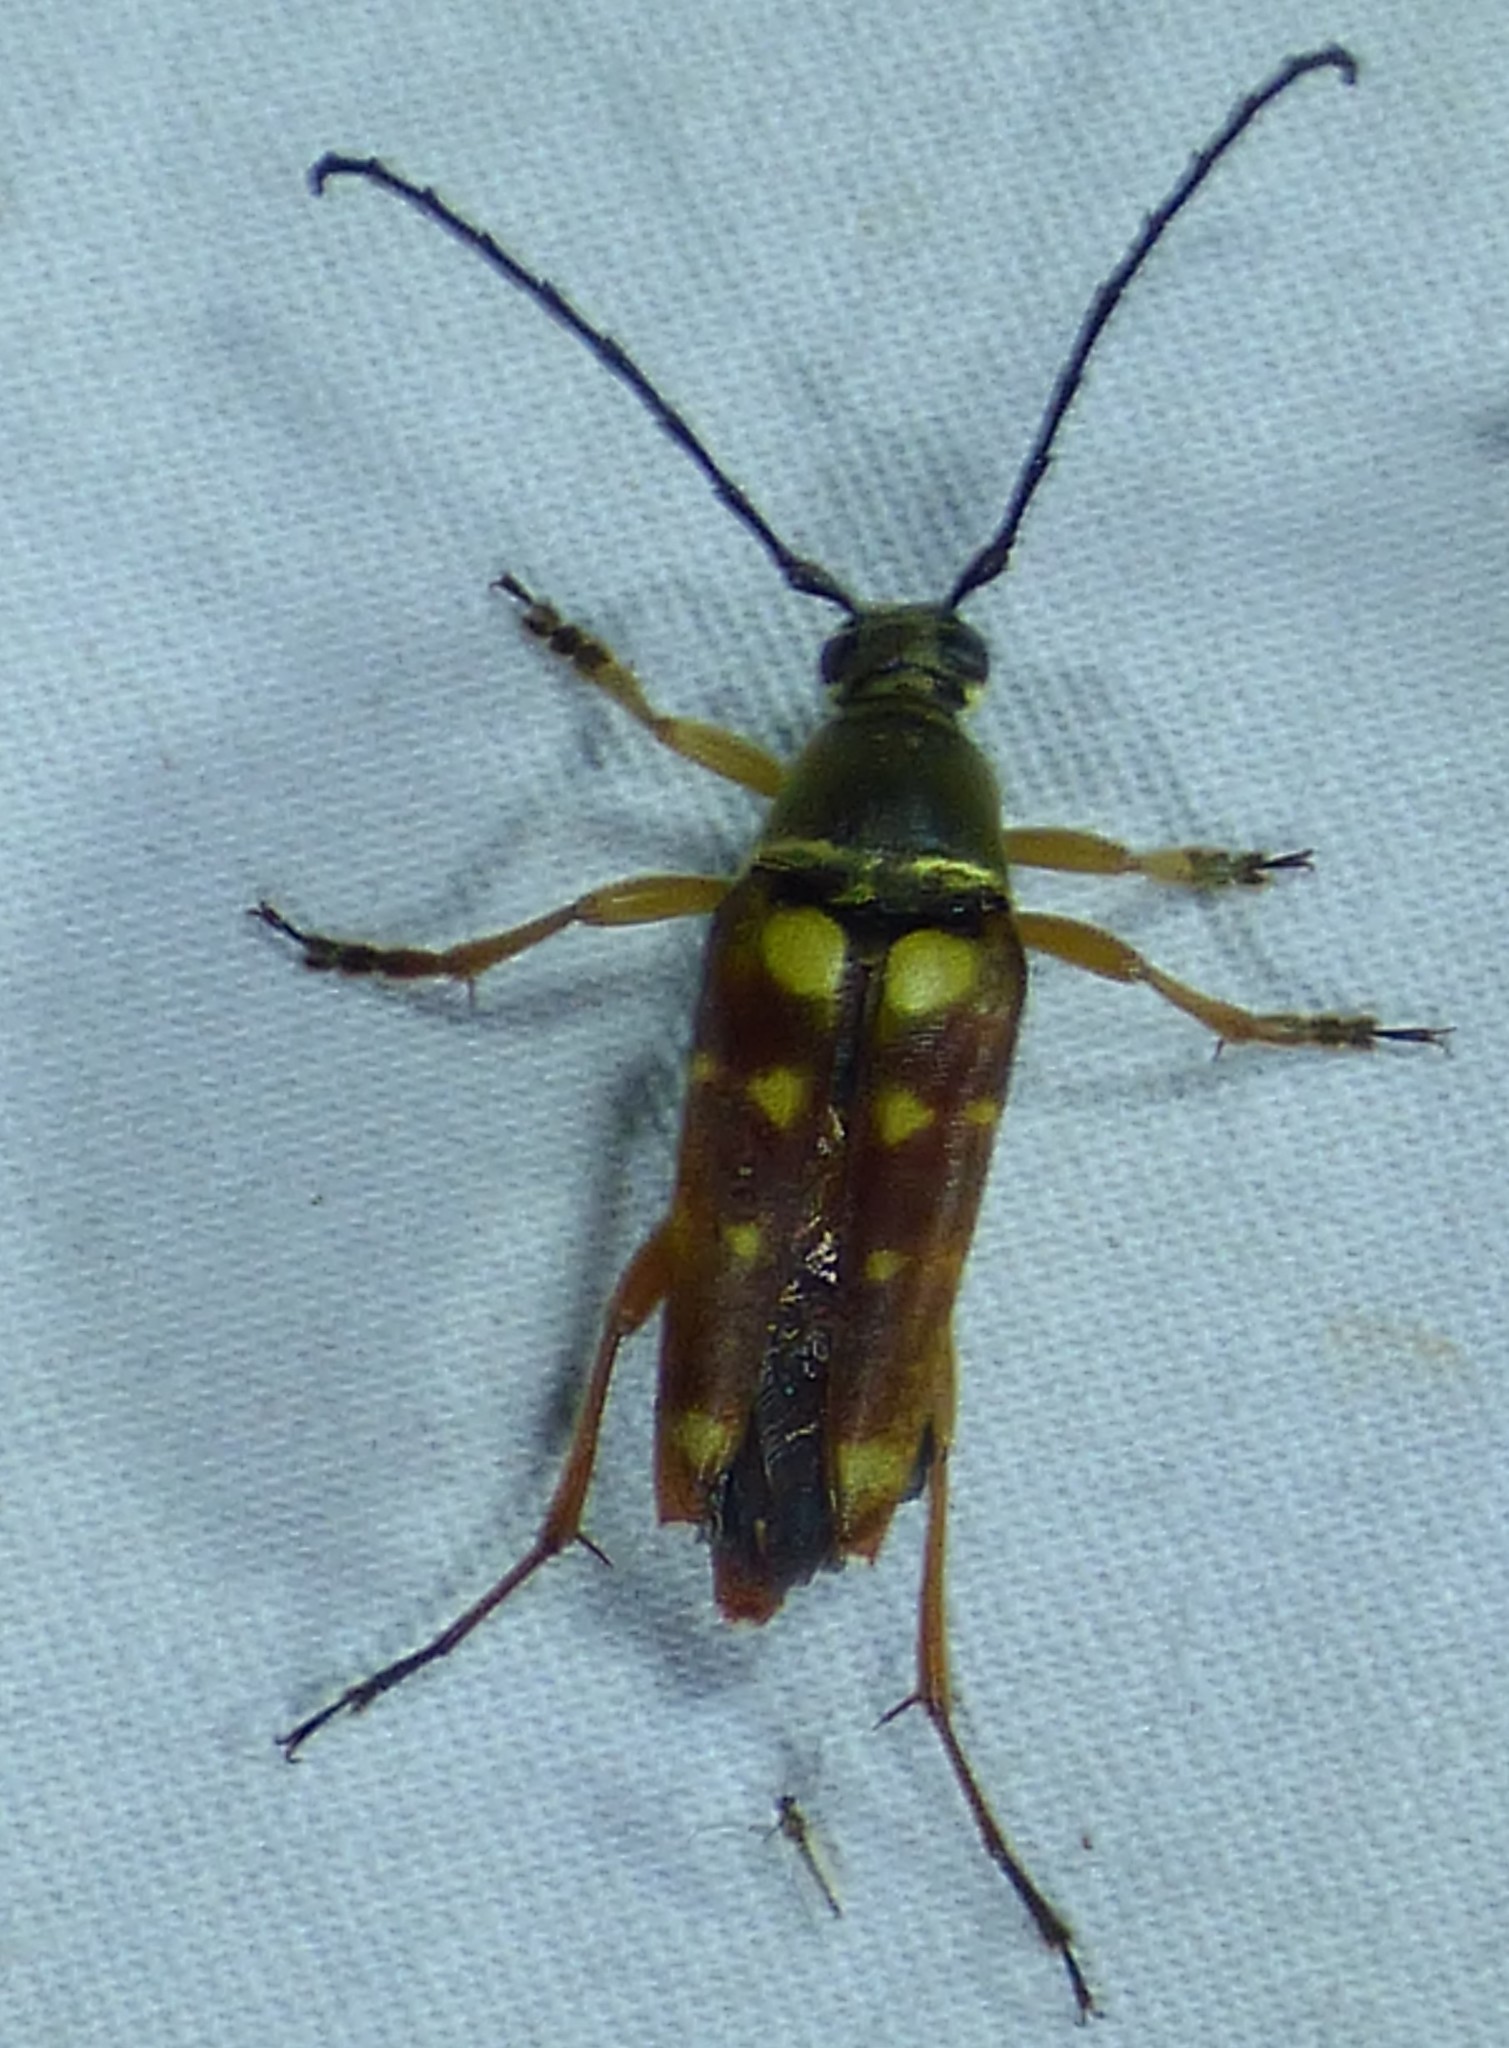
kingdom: Animalia
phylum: Arthropoda
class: Insecta
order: Coleoptera
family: Cerambycidae
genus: Typocerus
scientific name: Typocerus velutinus
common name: Banded longhorn beetle
